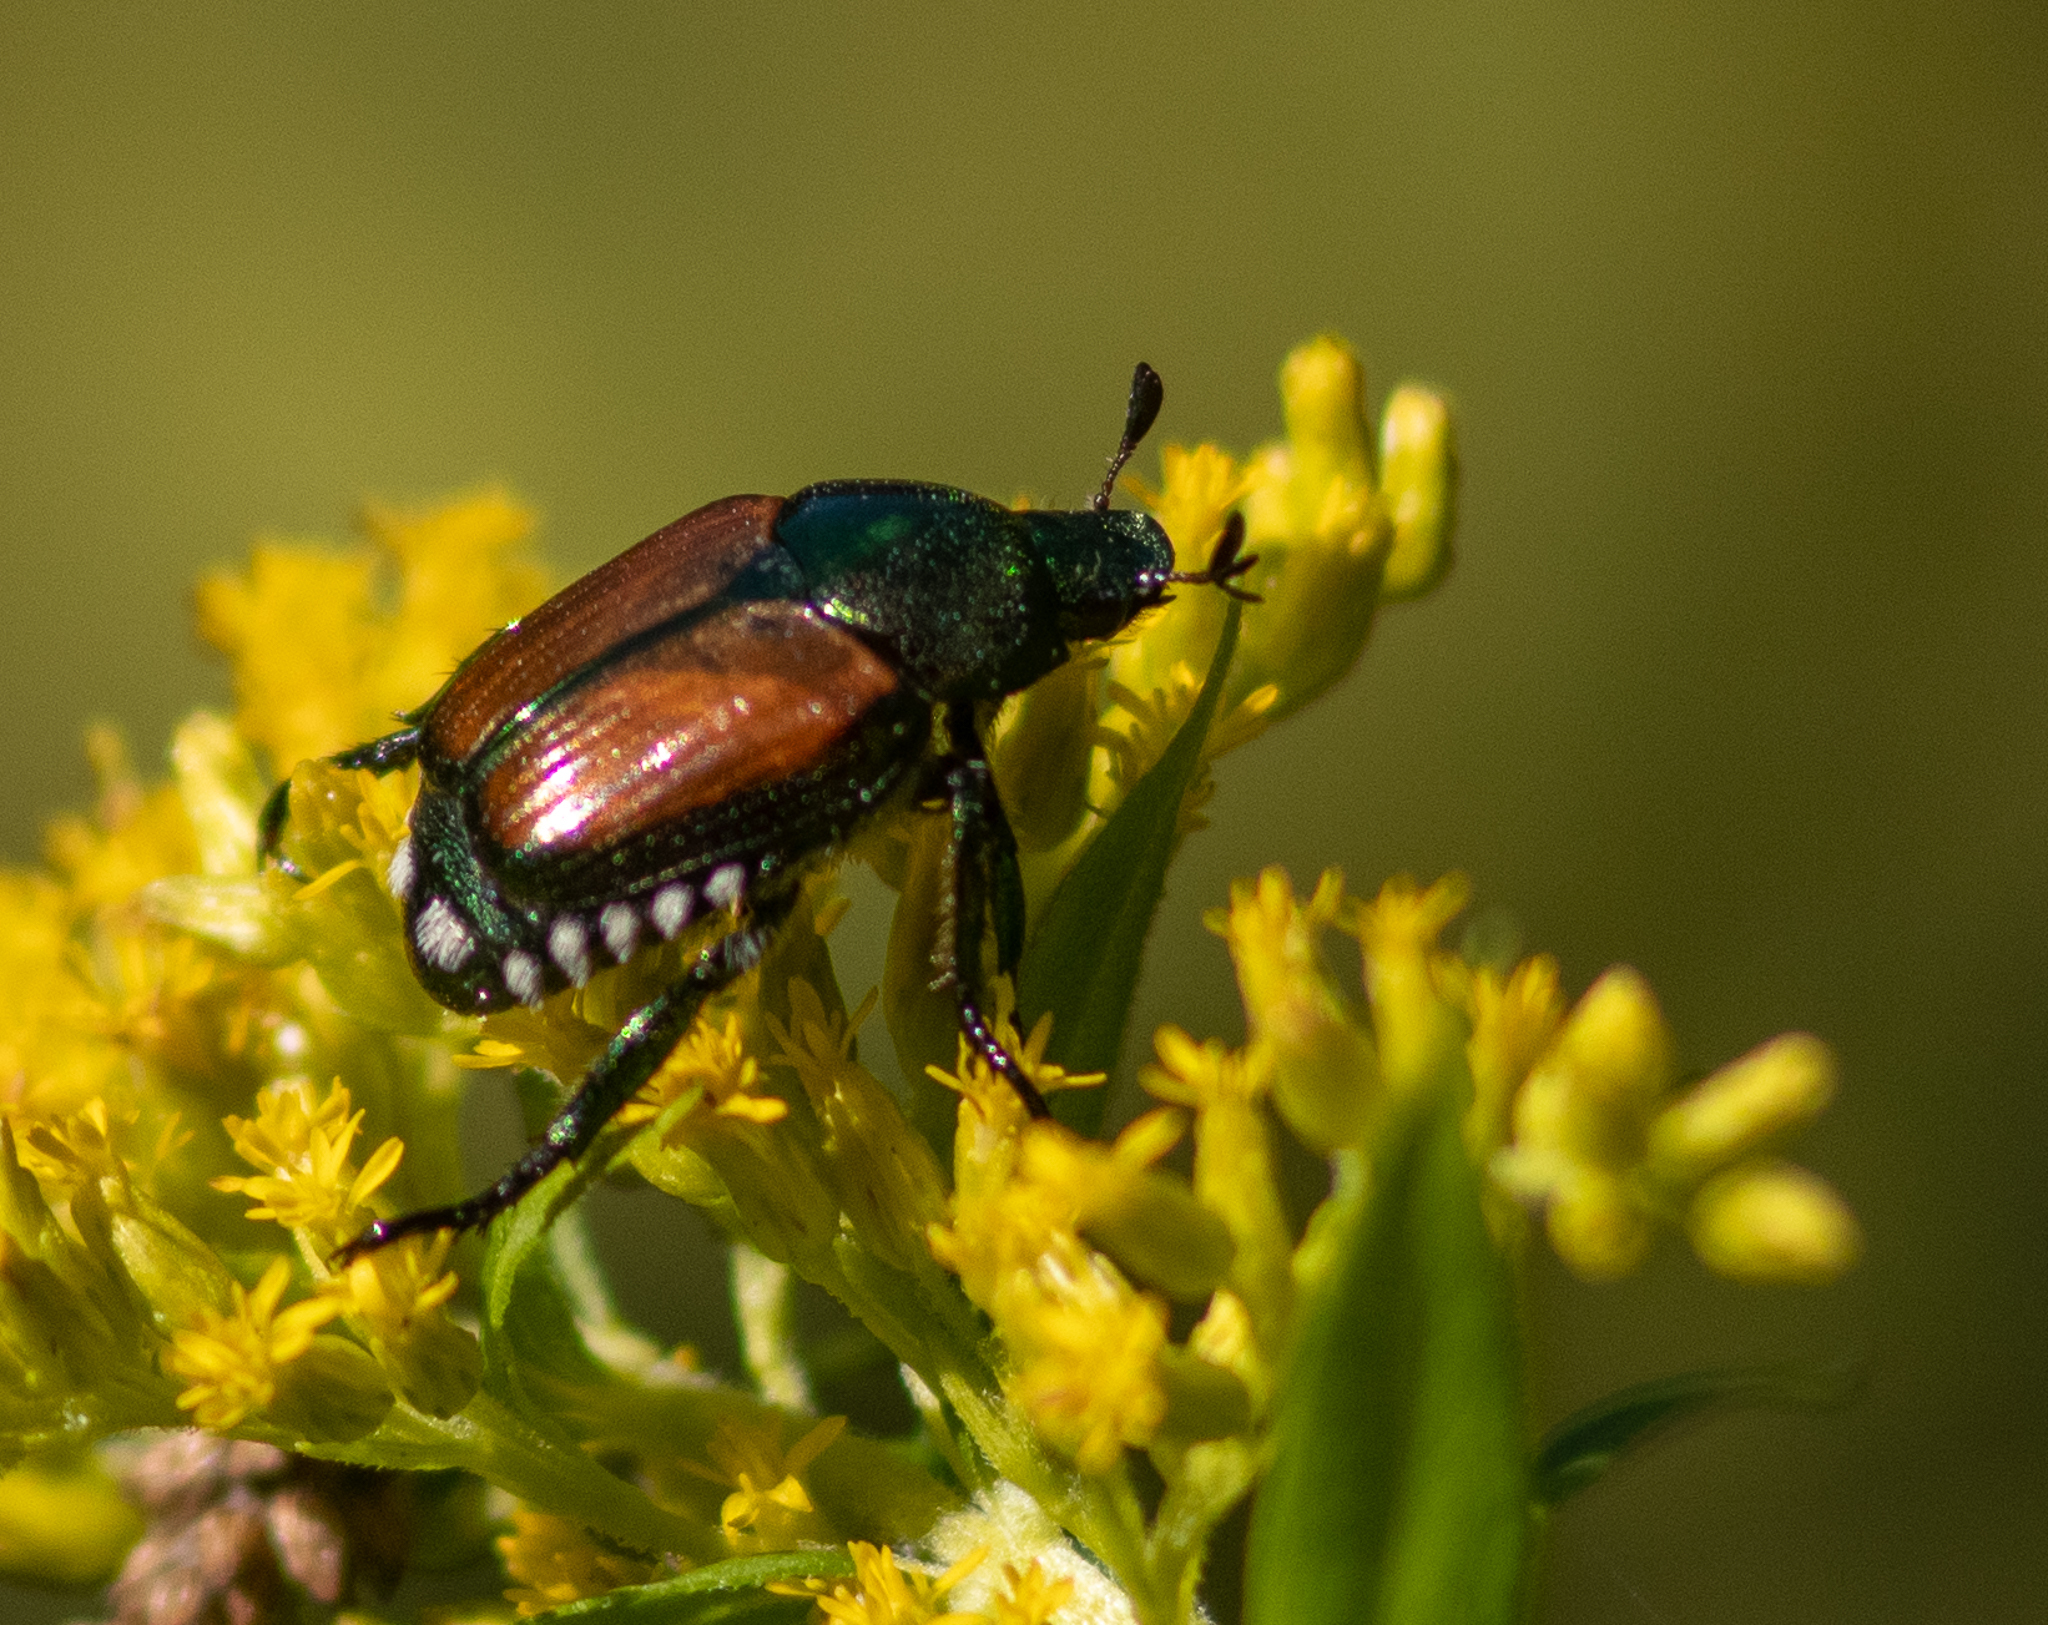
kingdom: Animalia
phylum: Arthropoda
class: Insecta
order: Coleoptera
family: Scarabaeidae
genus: Popillia
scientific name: Popillia japonica
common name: Japanese beetle
